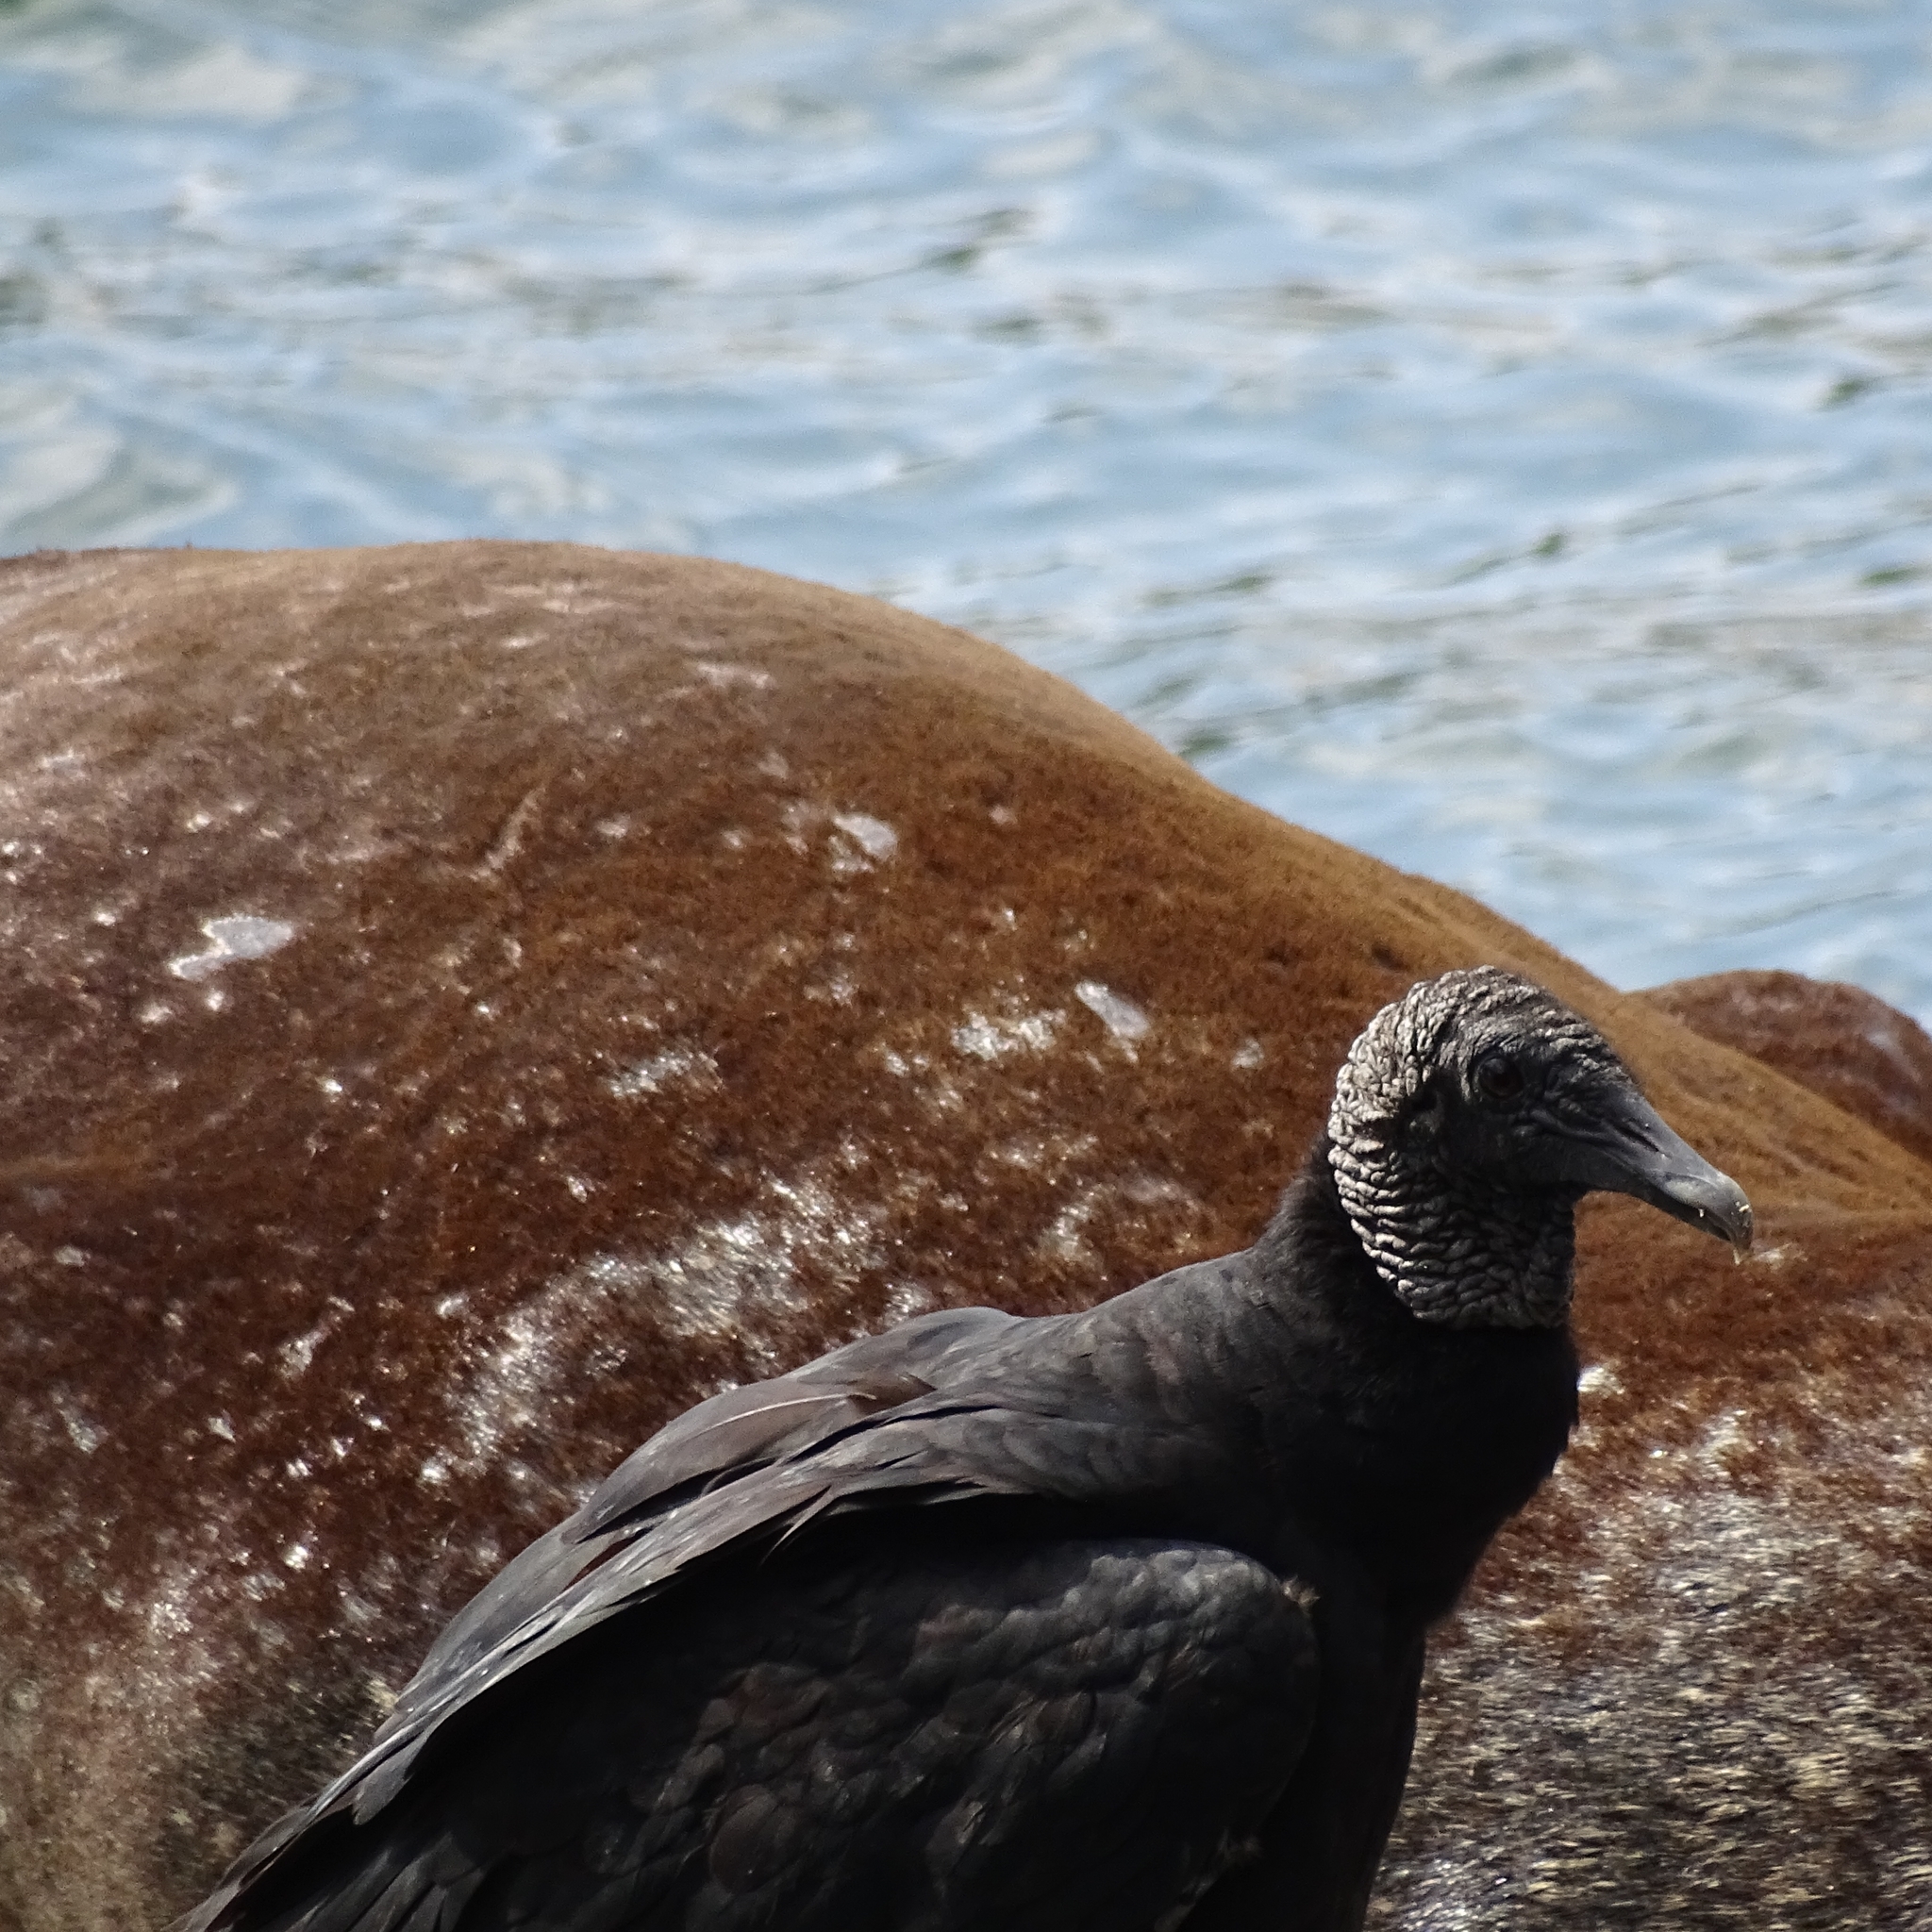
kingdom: Animalia
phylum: Chordata
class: Aves
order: Accipitriformes
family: Cathartidae
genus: Coragyps
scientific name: Coragyps atratus
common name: Black vulture
